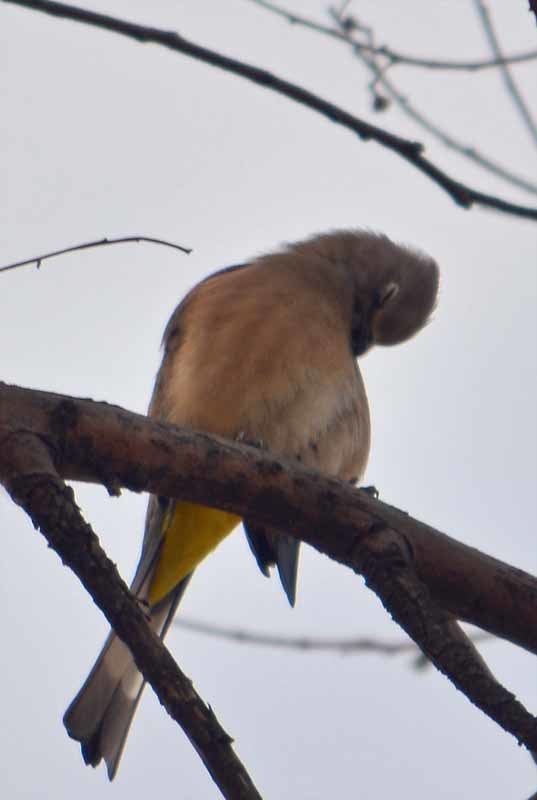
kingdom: Animalia
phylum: Chordata
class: Aves
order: Passeriformes
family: Ptilogonatidae
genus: Ptilogonys
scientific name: Ptilogonys cinereus
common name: Gray silky-flycatcher
